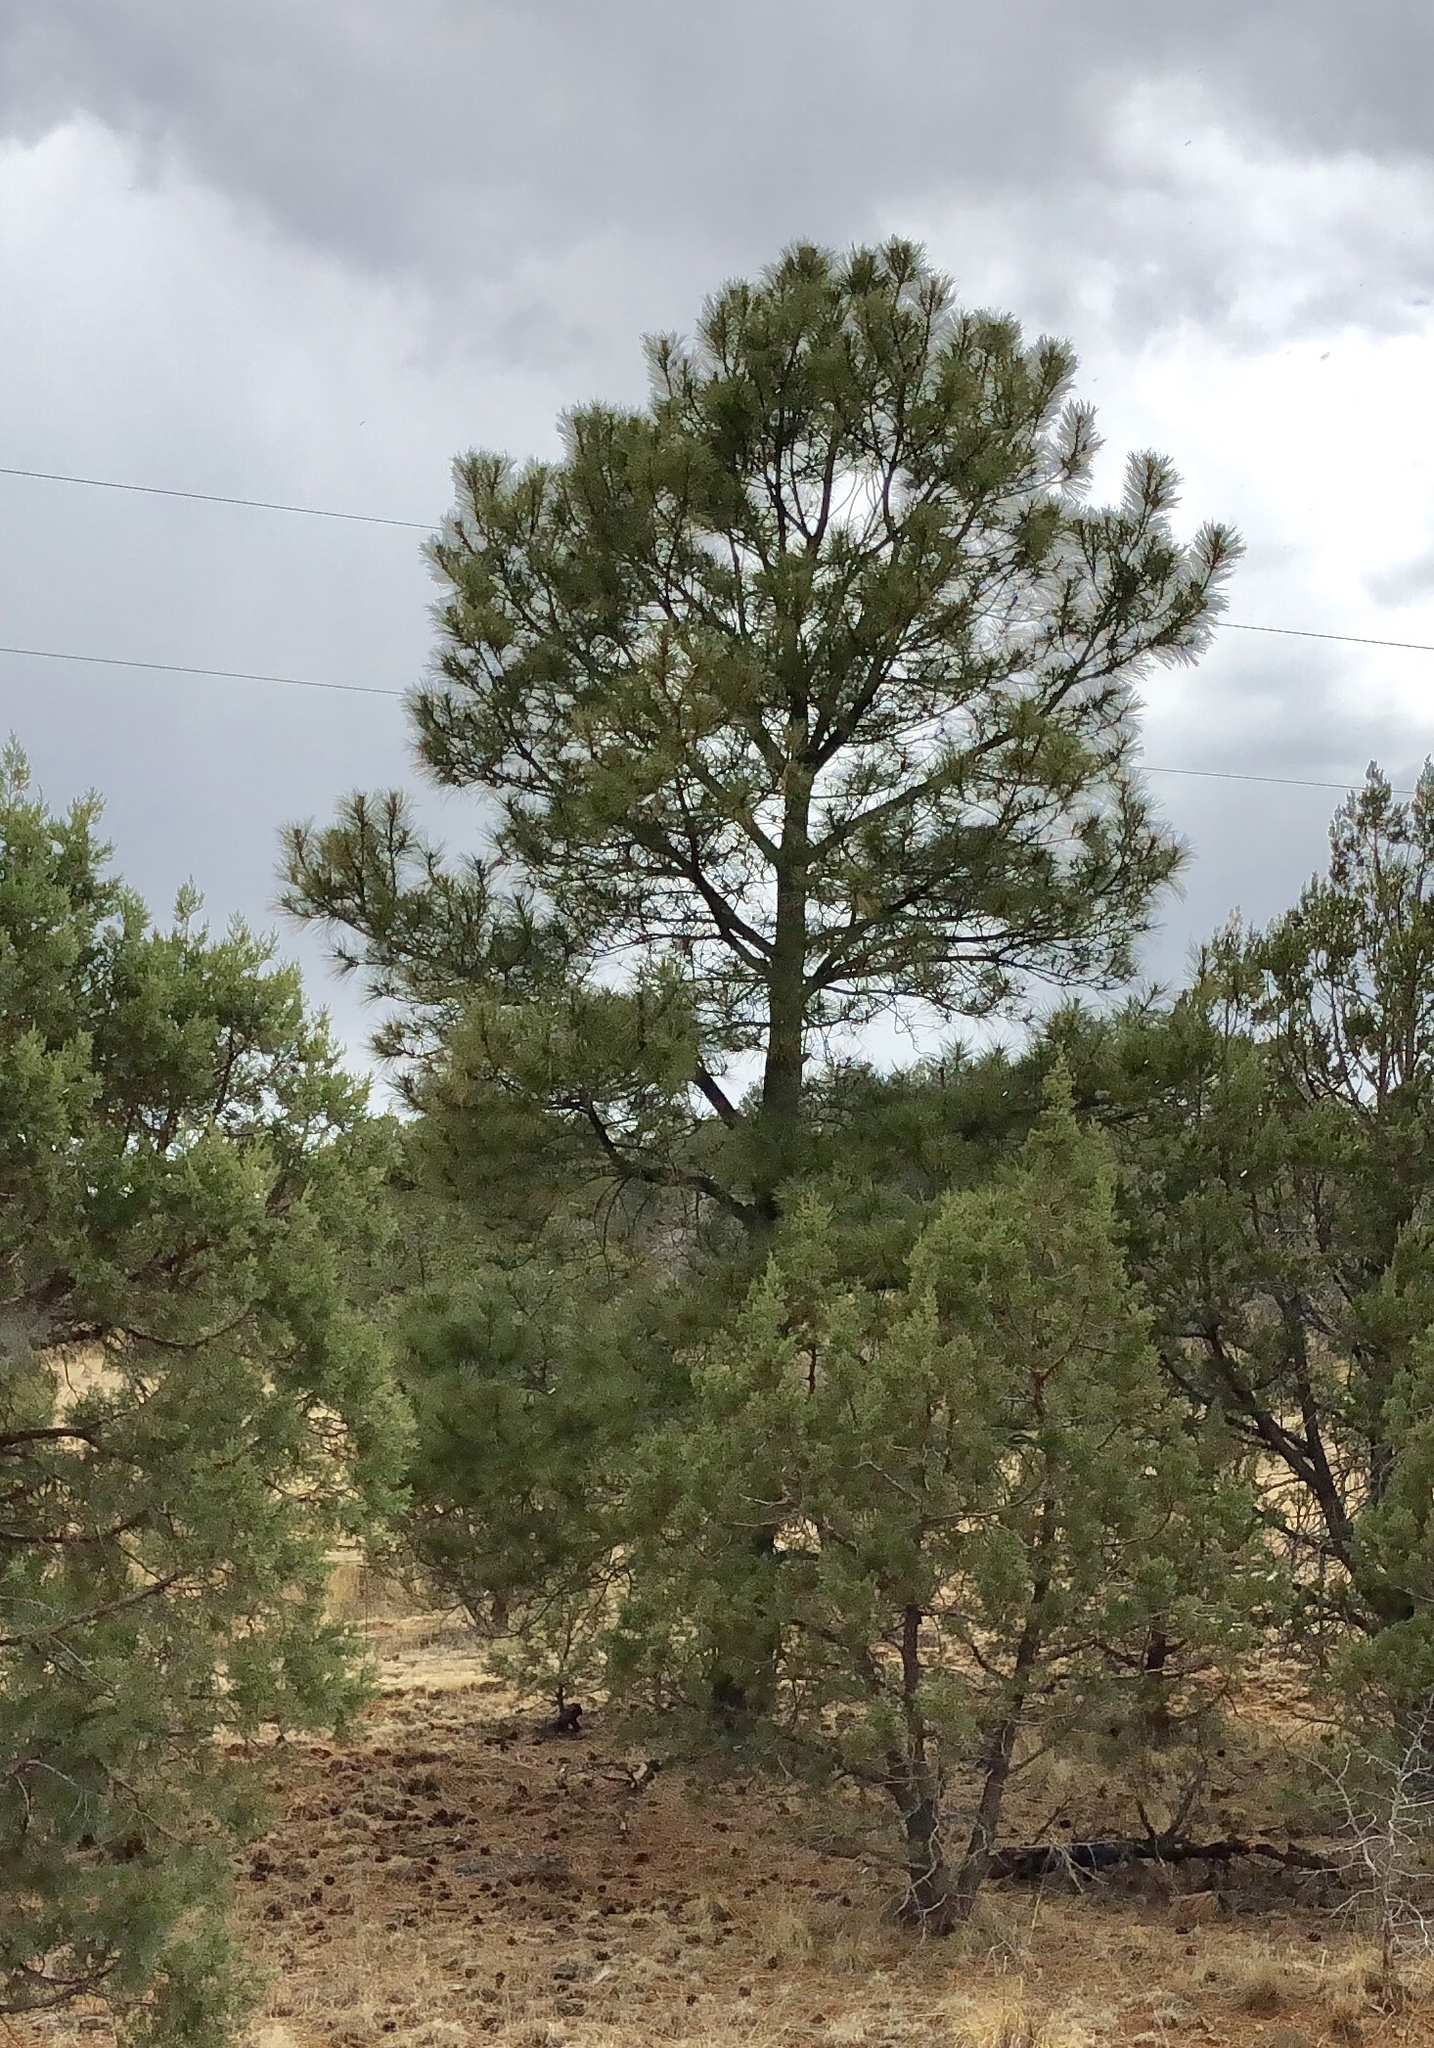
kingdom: Plantae
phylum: Tracheophyta
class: Pinopsida
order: Pinales
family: Pinaceae
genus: Pinus
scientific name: Pinus ponderosa
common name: Western yellow-pine
